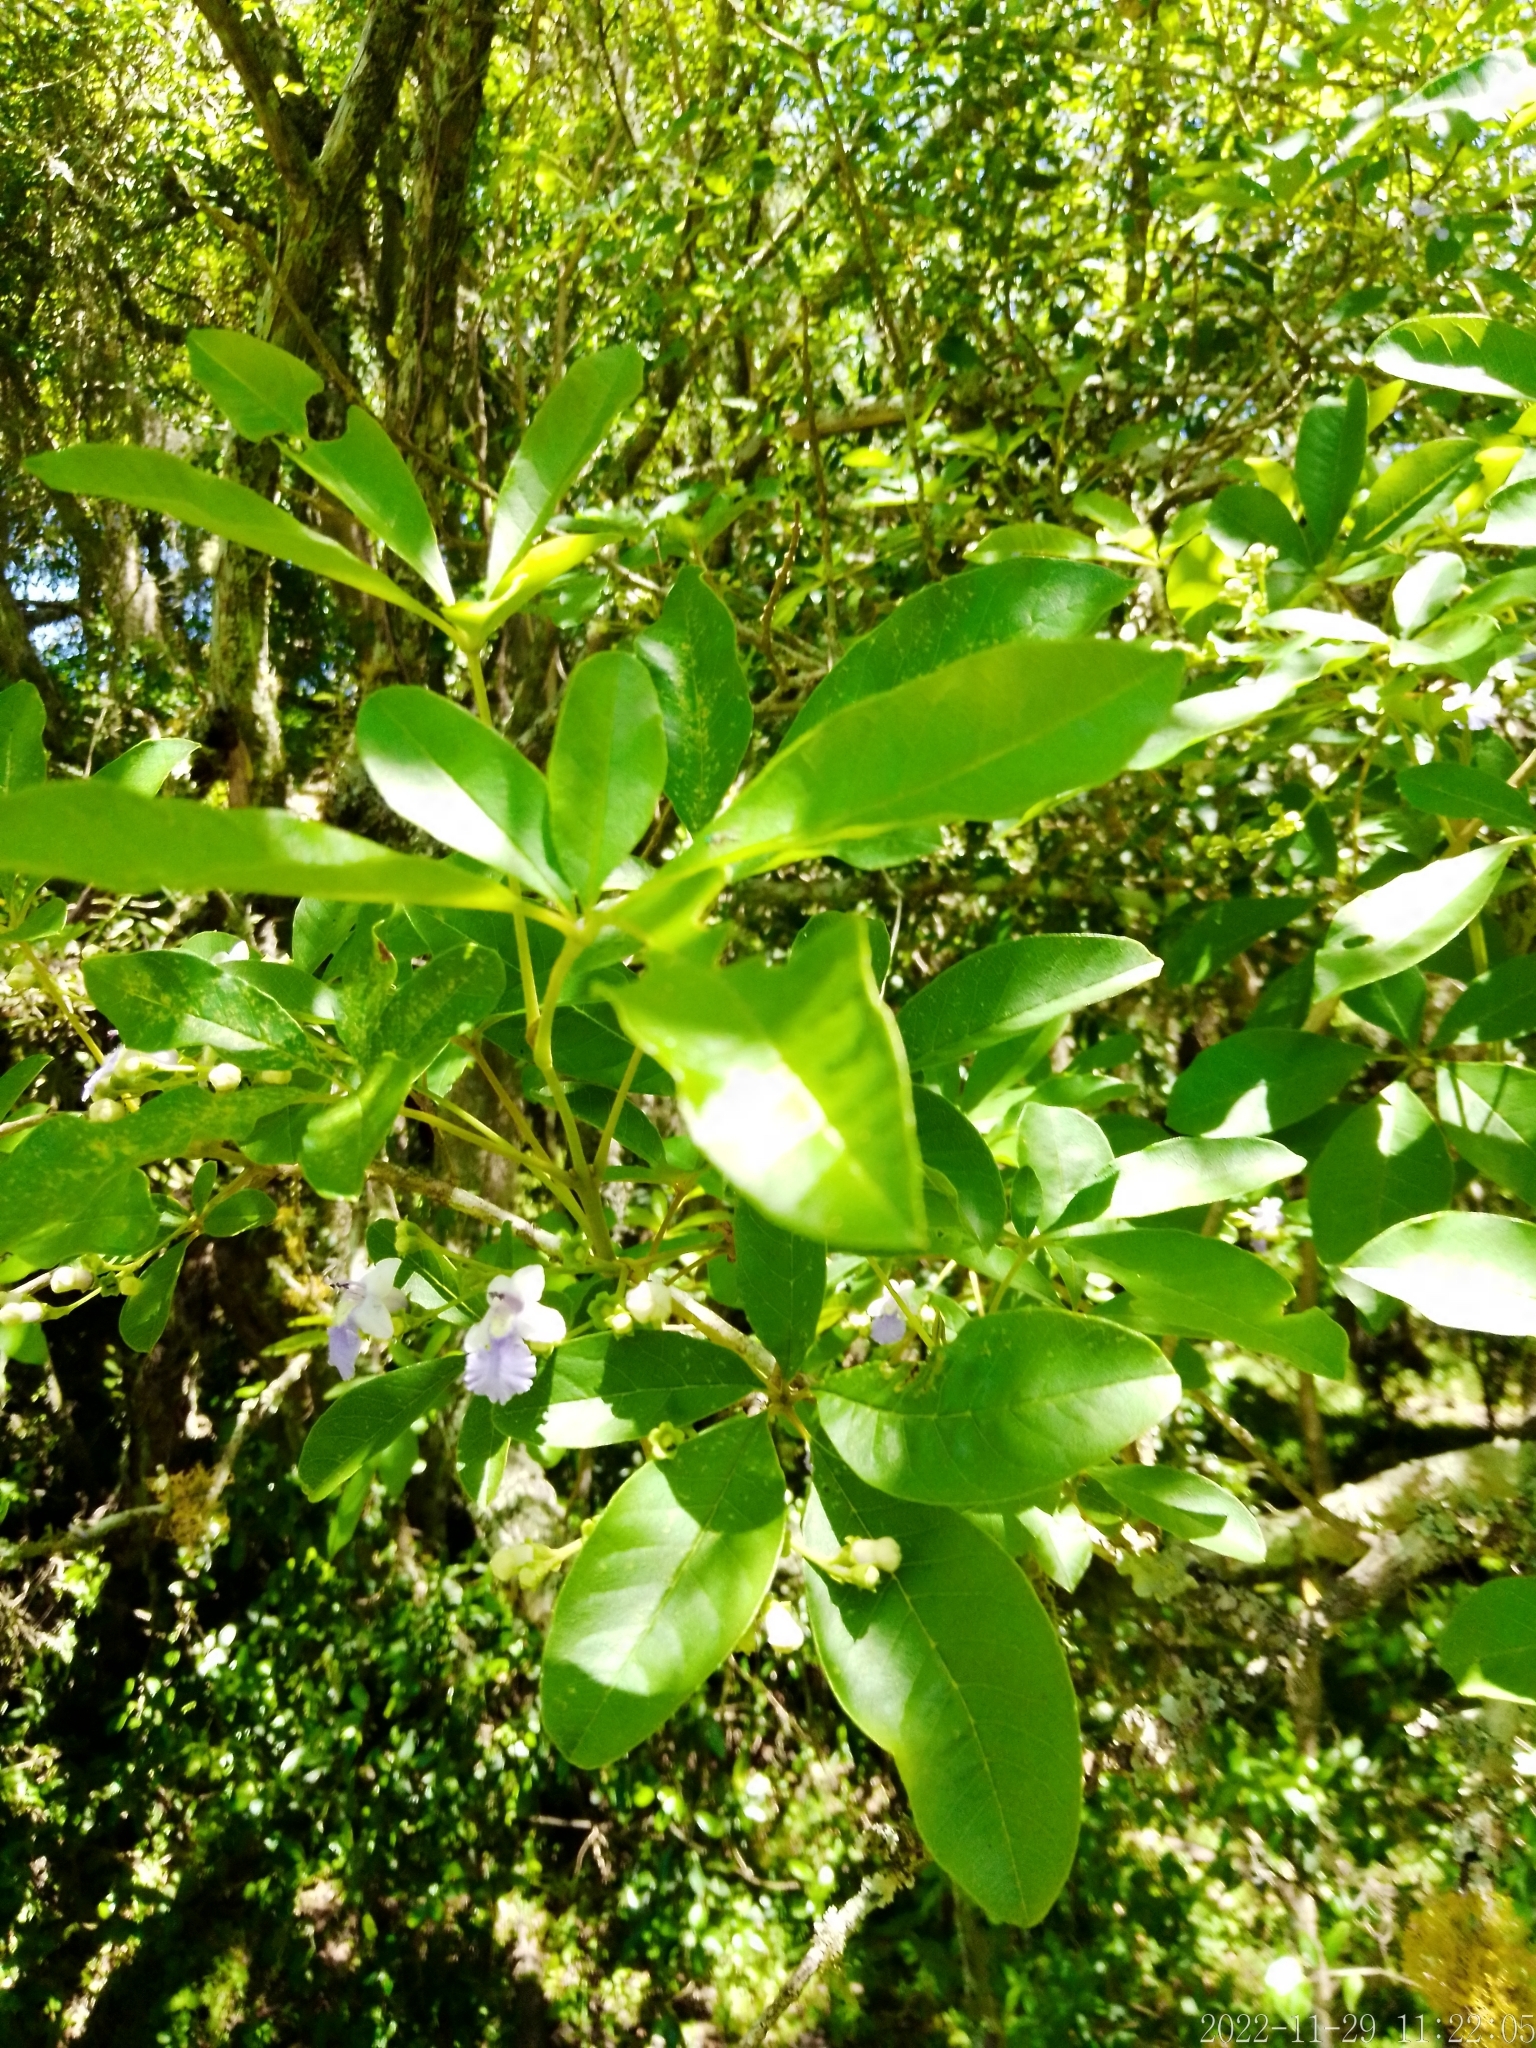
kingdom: Plantae
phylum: Tracheophyta
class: Magnoliopsida
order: Lamiales
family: Lamiaceae
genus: Vitex
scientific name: Vitex megapotamica
